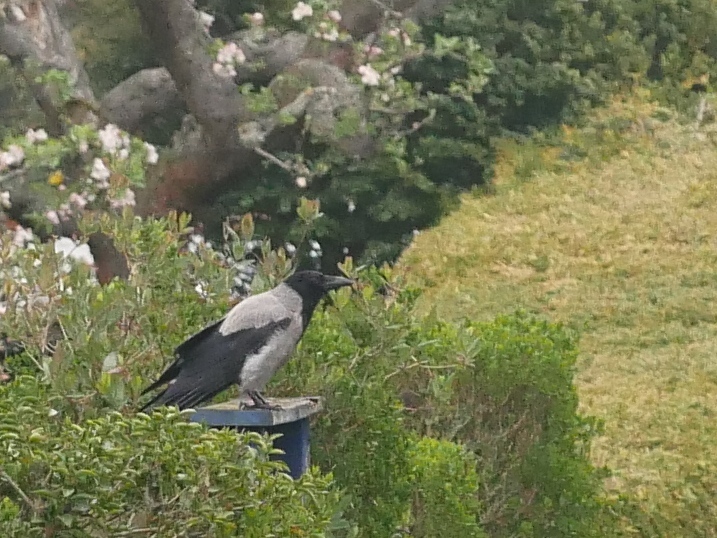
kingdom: Animalia
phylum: Chordata
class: Aves
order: Passeriformes
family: Corvidae
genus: Corvus
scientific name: Corvus cornix
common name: Hooded crow
